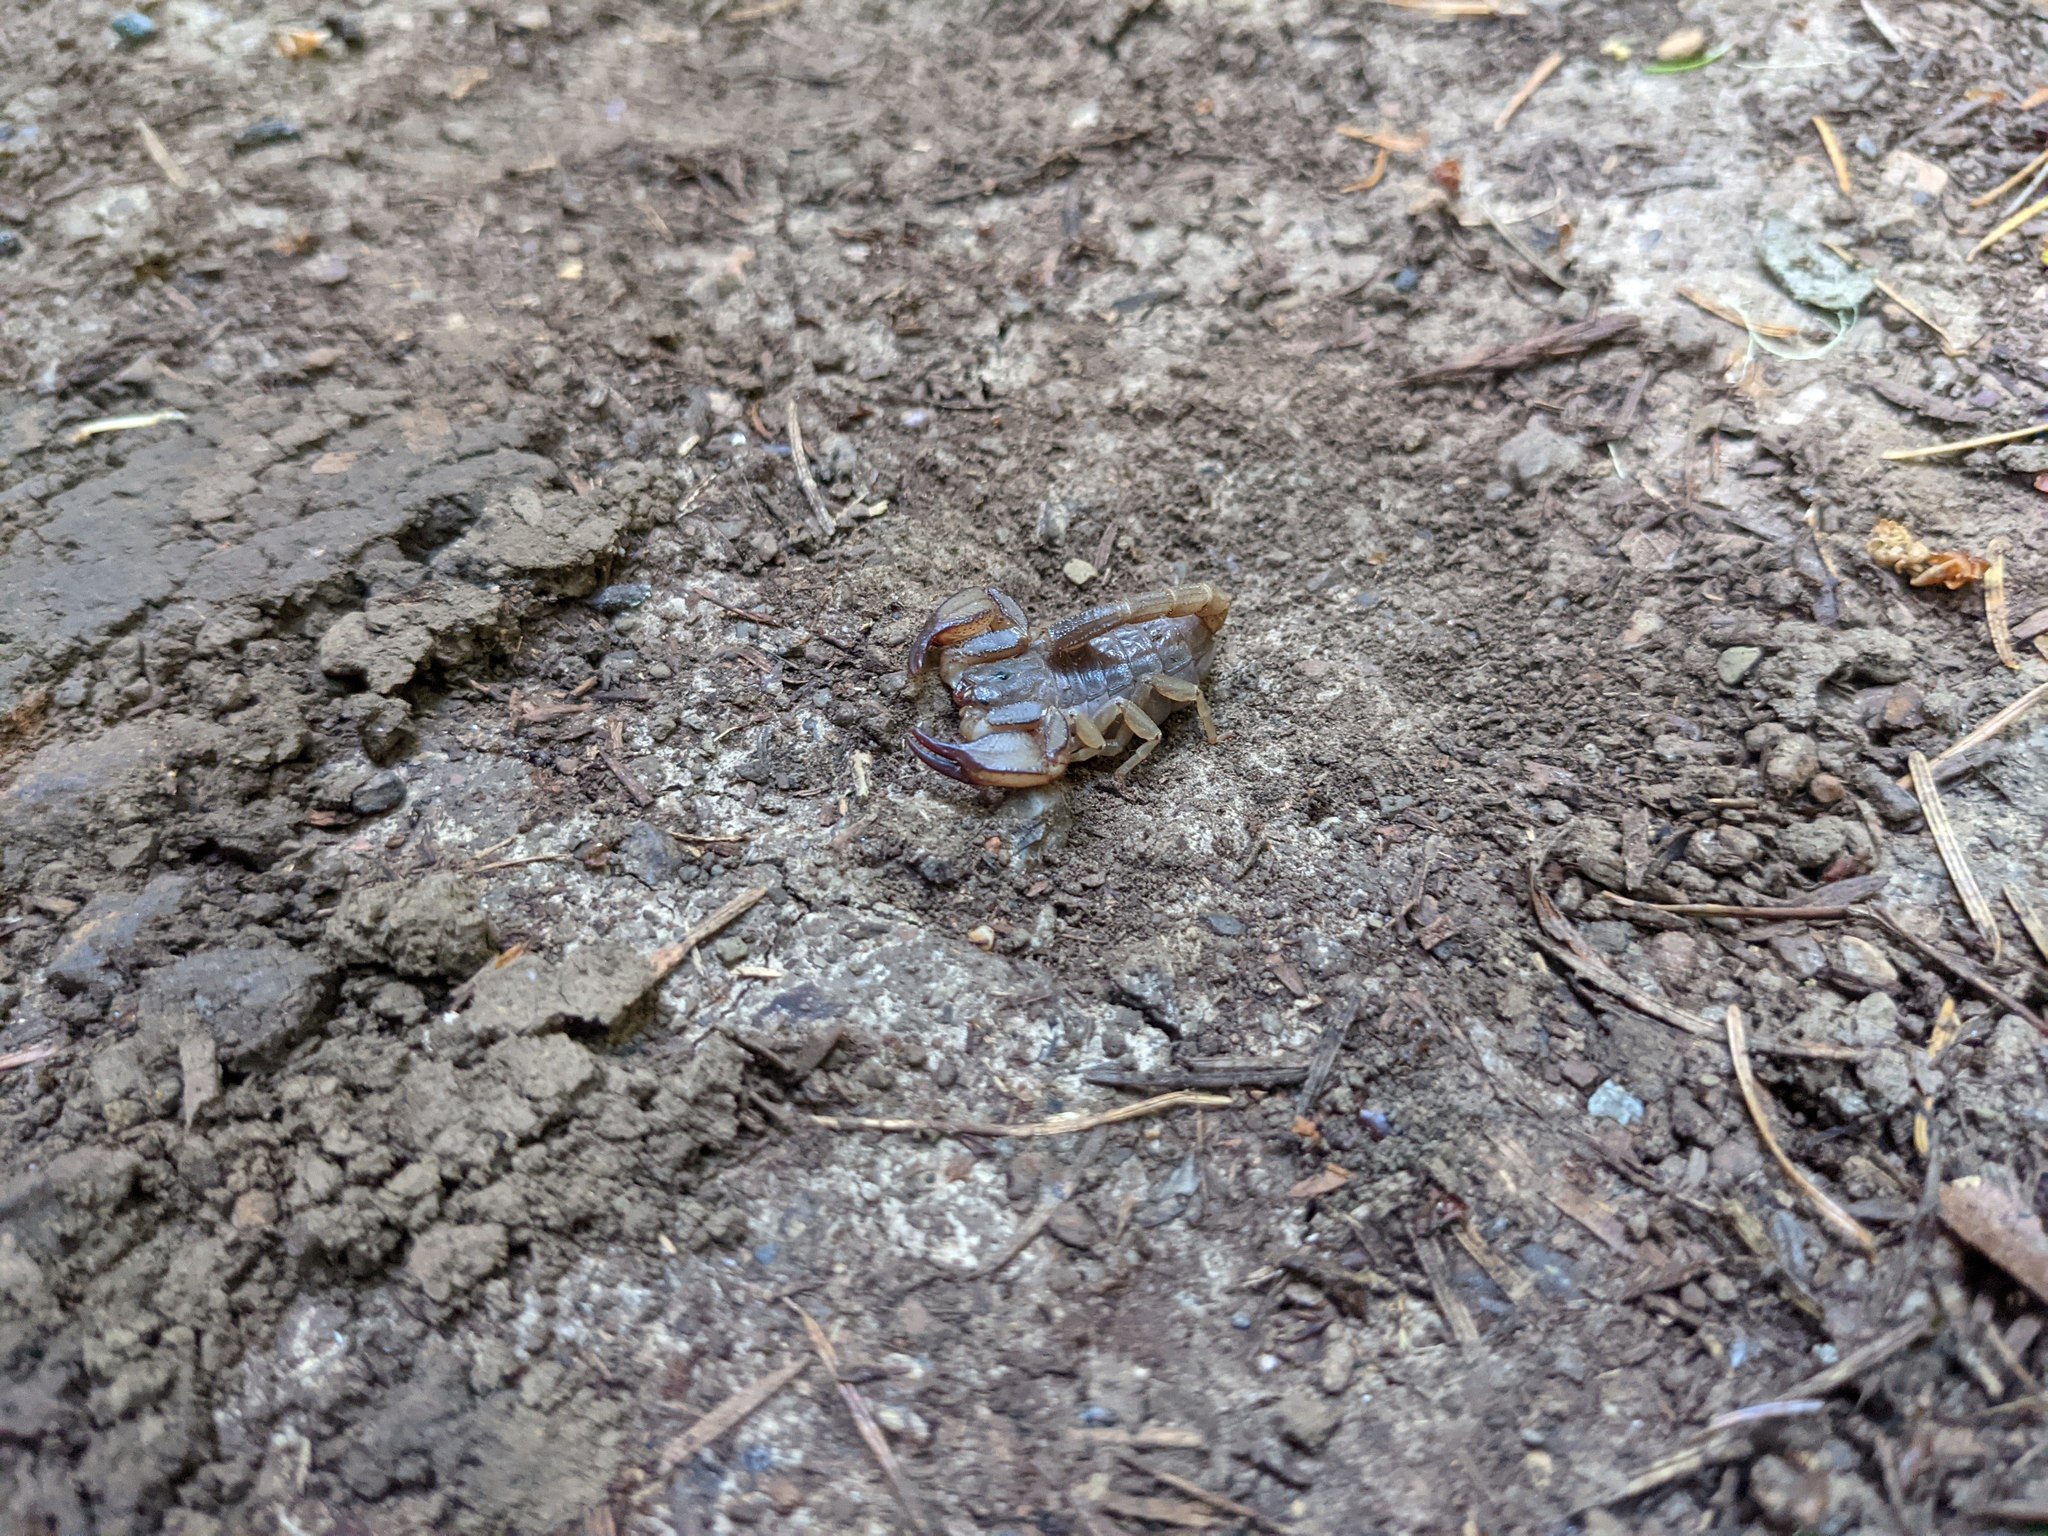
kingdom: Animalia
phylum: Arthropoda
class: Arachnida
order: Scorpiones
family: Chactidae
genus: Uroctonus
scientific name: Uroctonus mordax
